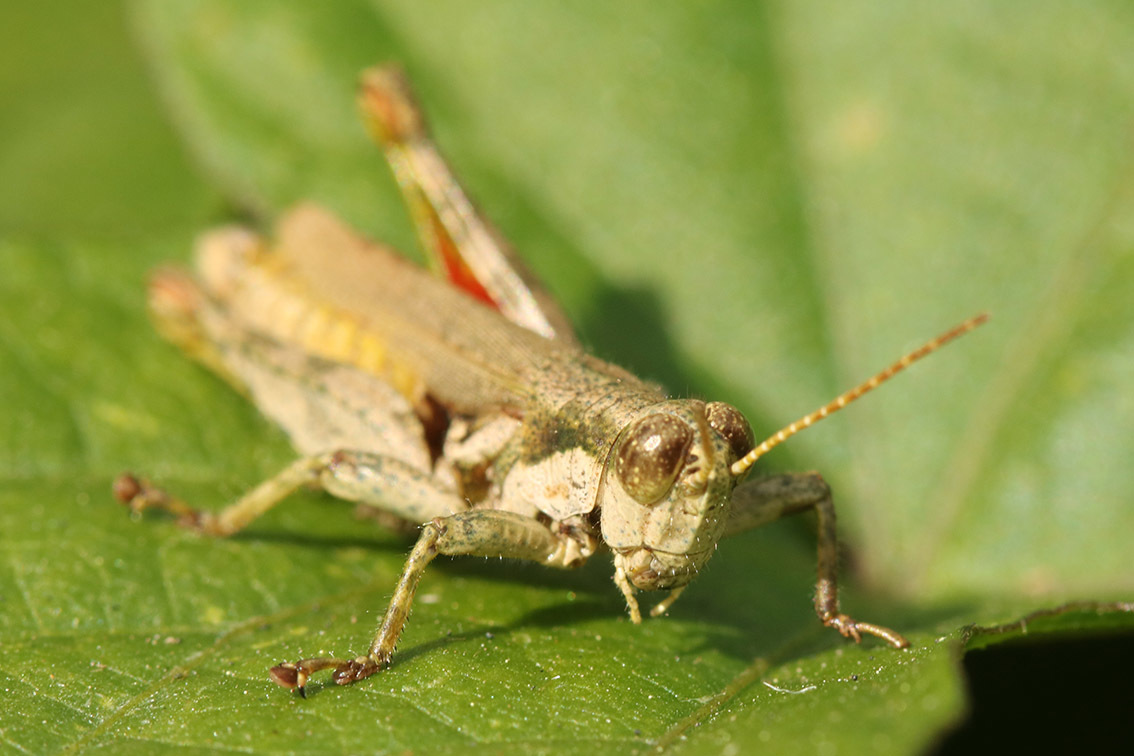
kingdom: Animalia
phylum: Arthropoda
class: Insecta
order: Orthoptera
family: Acrididae
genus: Ronderosia
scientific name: Ronderosia bergii
